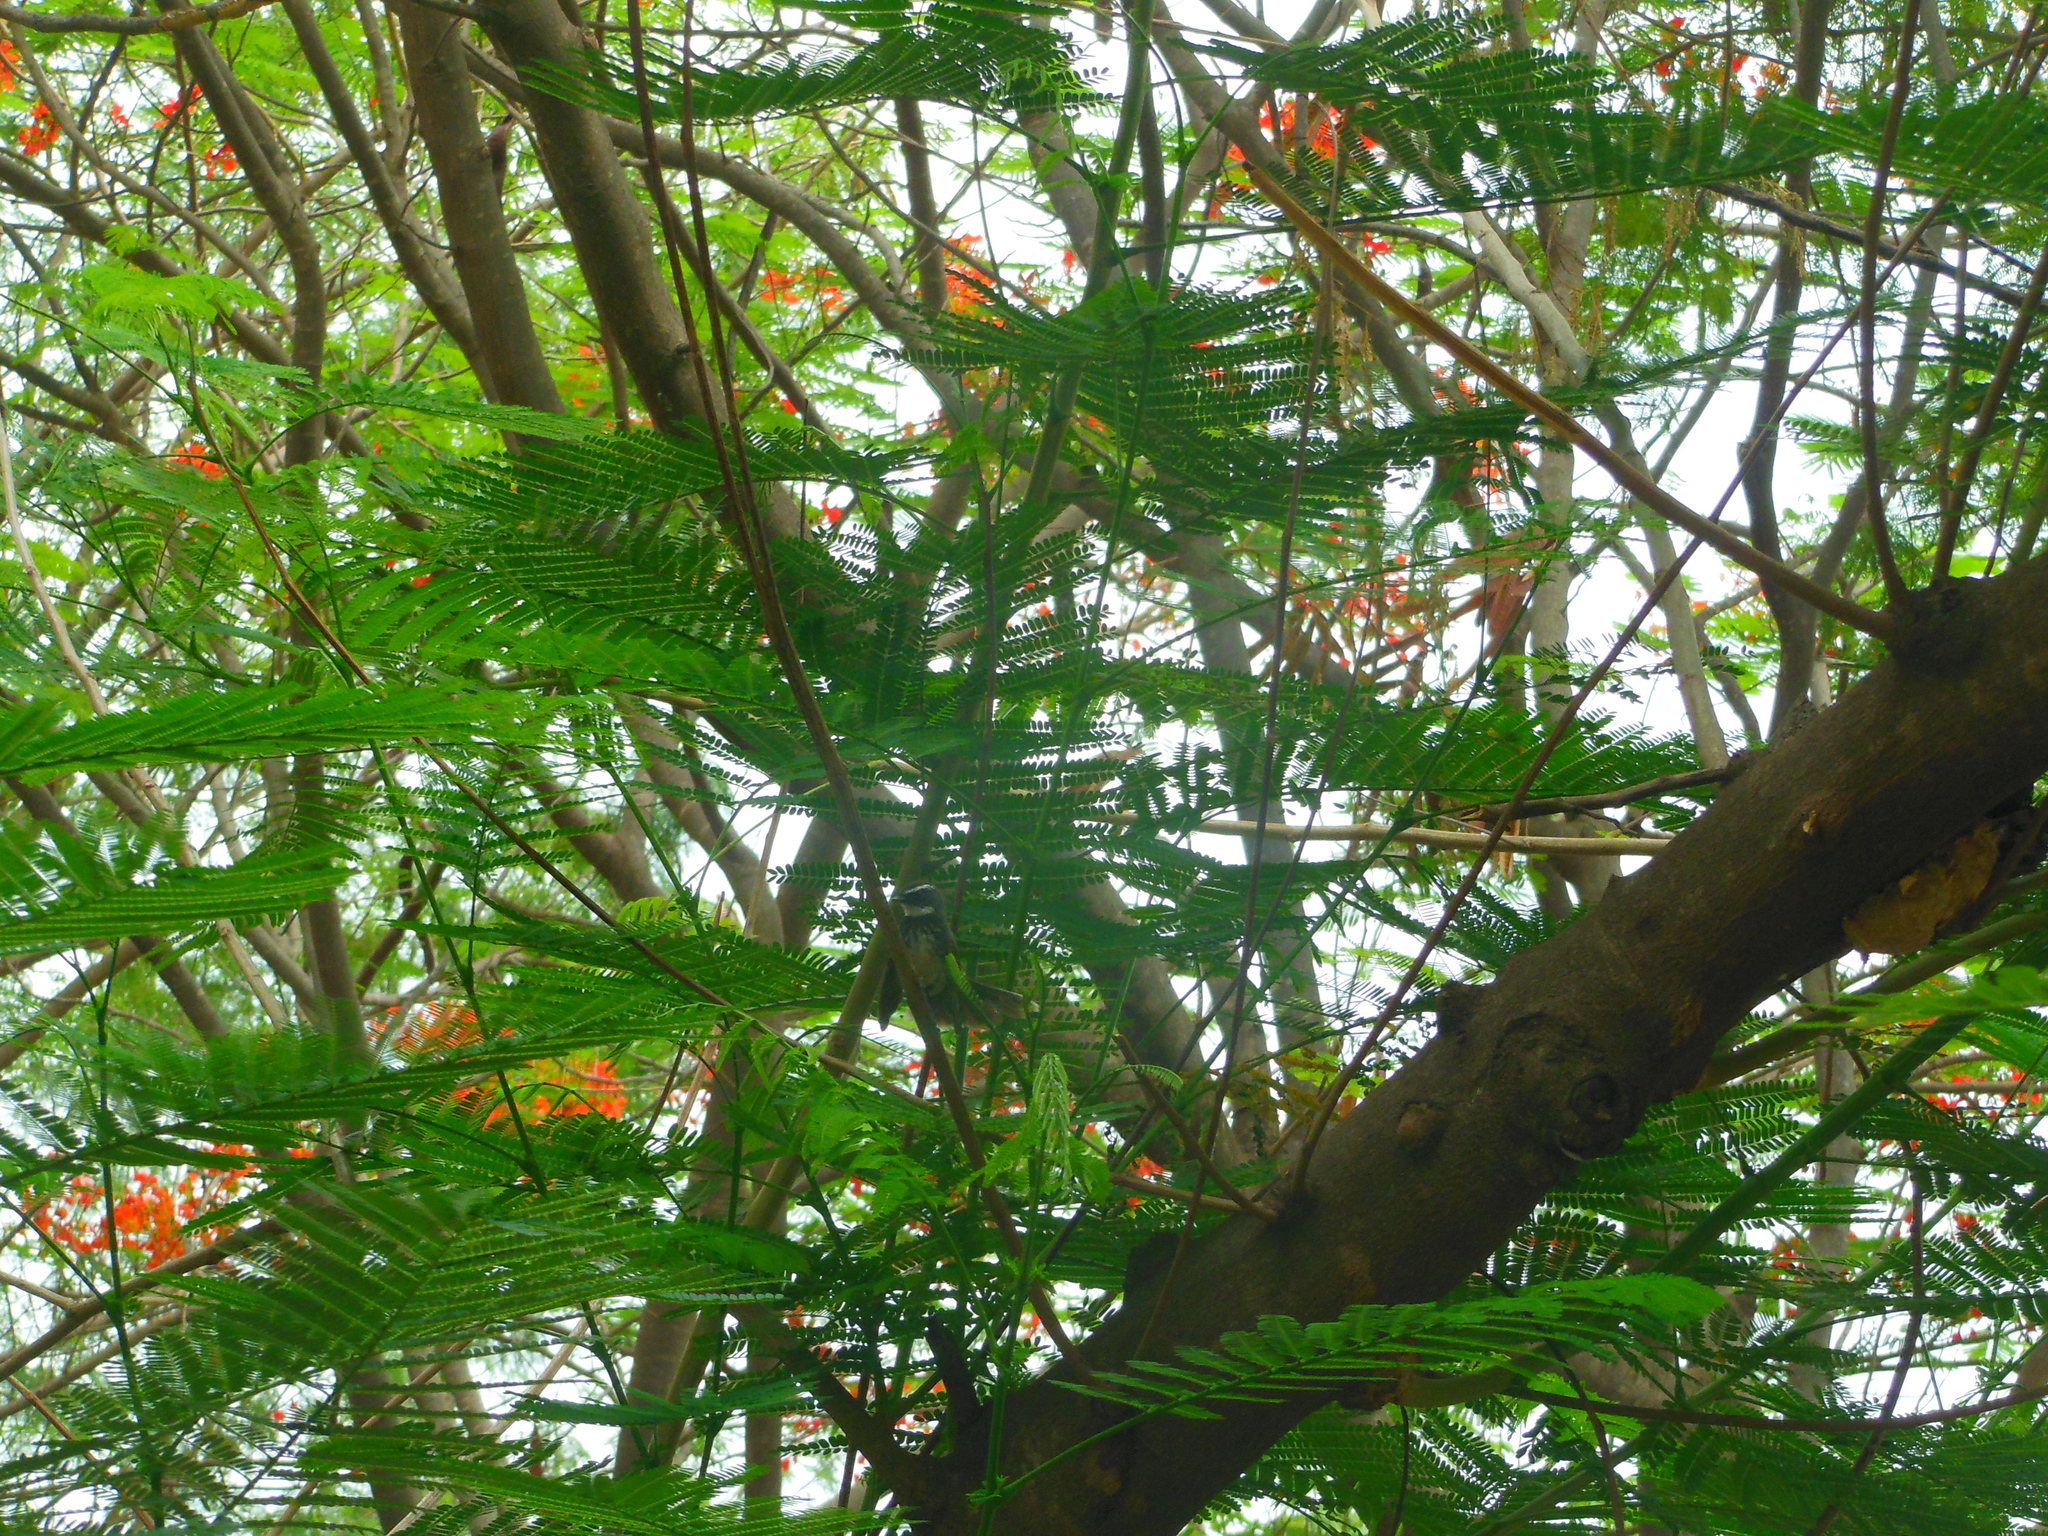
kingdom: Animalia
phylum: Chordata
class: Aves
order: Passeriformes
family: Rhipiduridae
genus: Rhipidura
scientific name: Rhipidura albogularis
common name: White-spotted fantail
